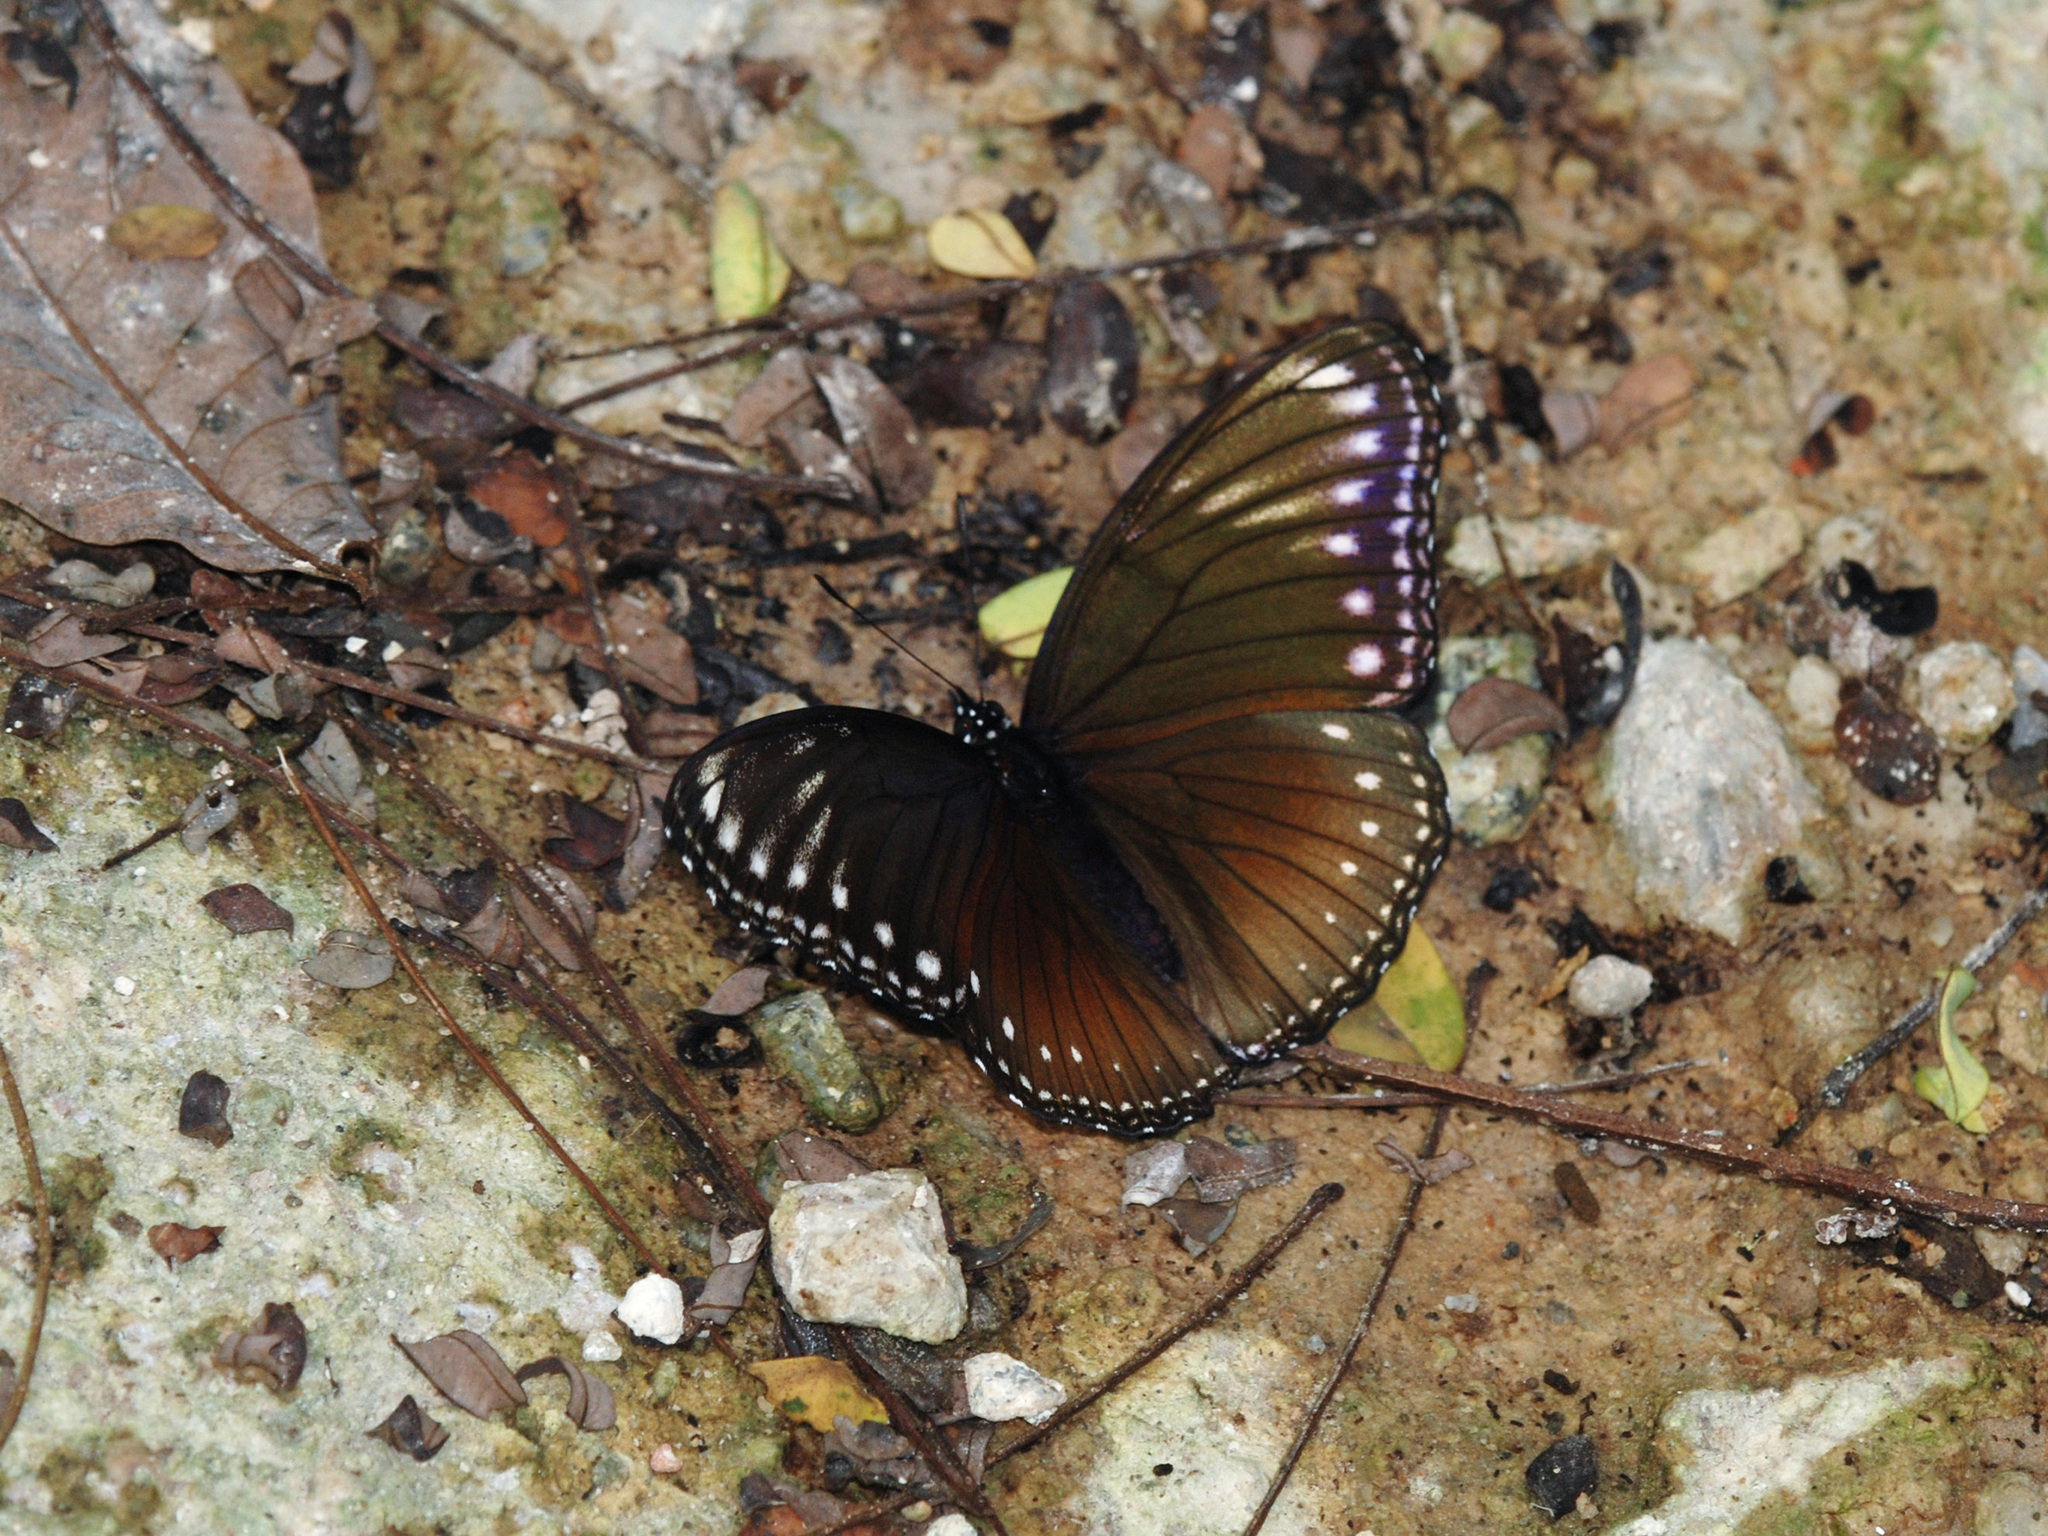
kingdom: Animalia
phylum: Arthropoda
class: Insecta
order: Lepidoptera
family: Nymphalidae
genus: Hypolimnas
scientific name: Hypolimnas anomala
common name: Malayan eggfly
